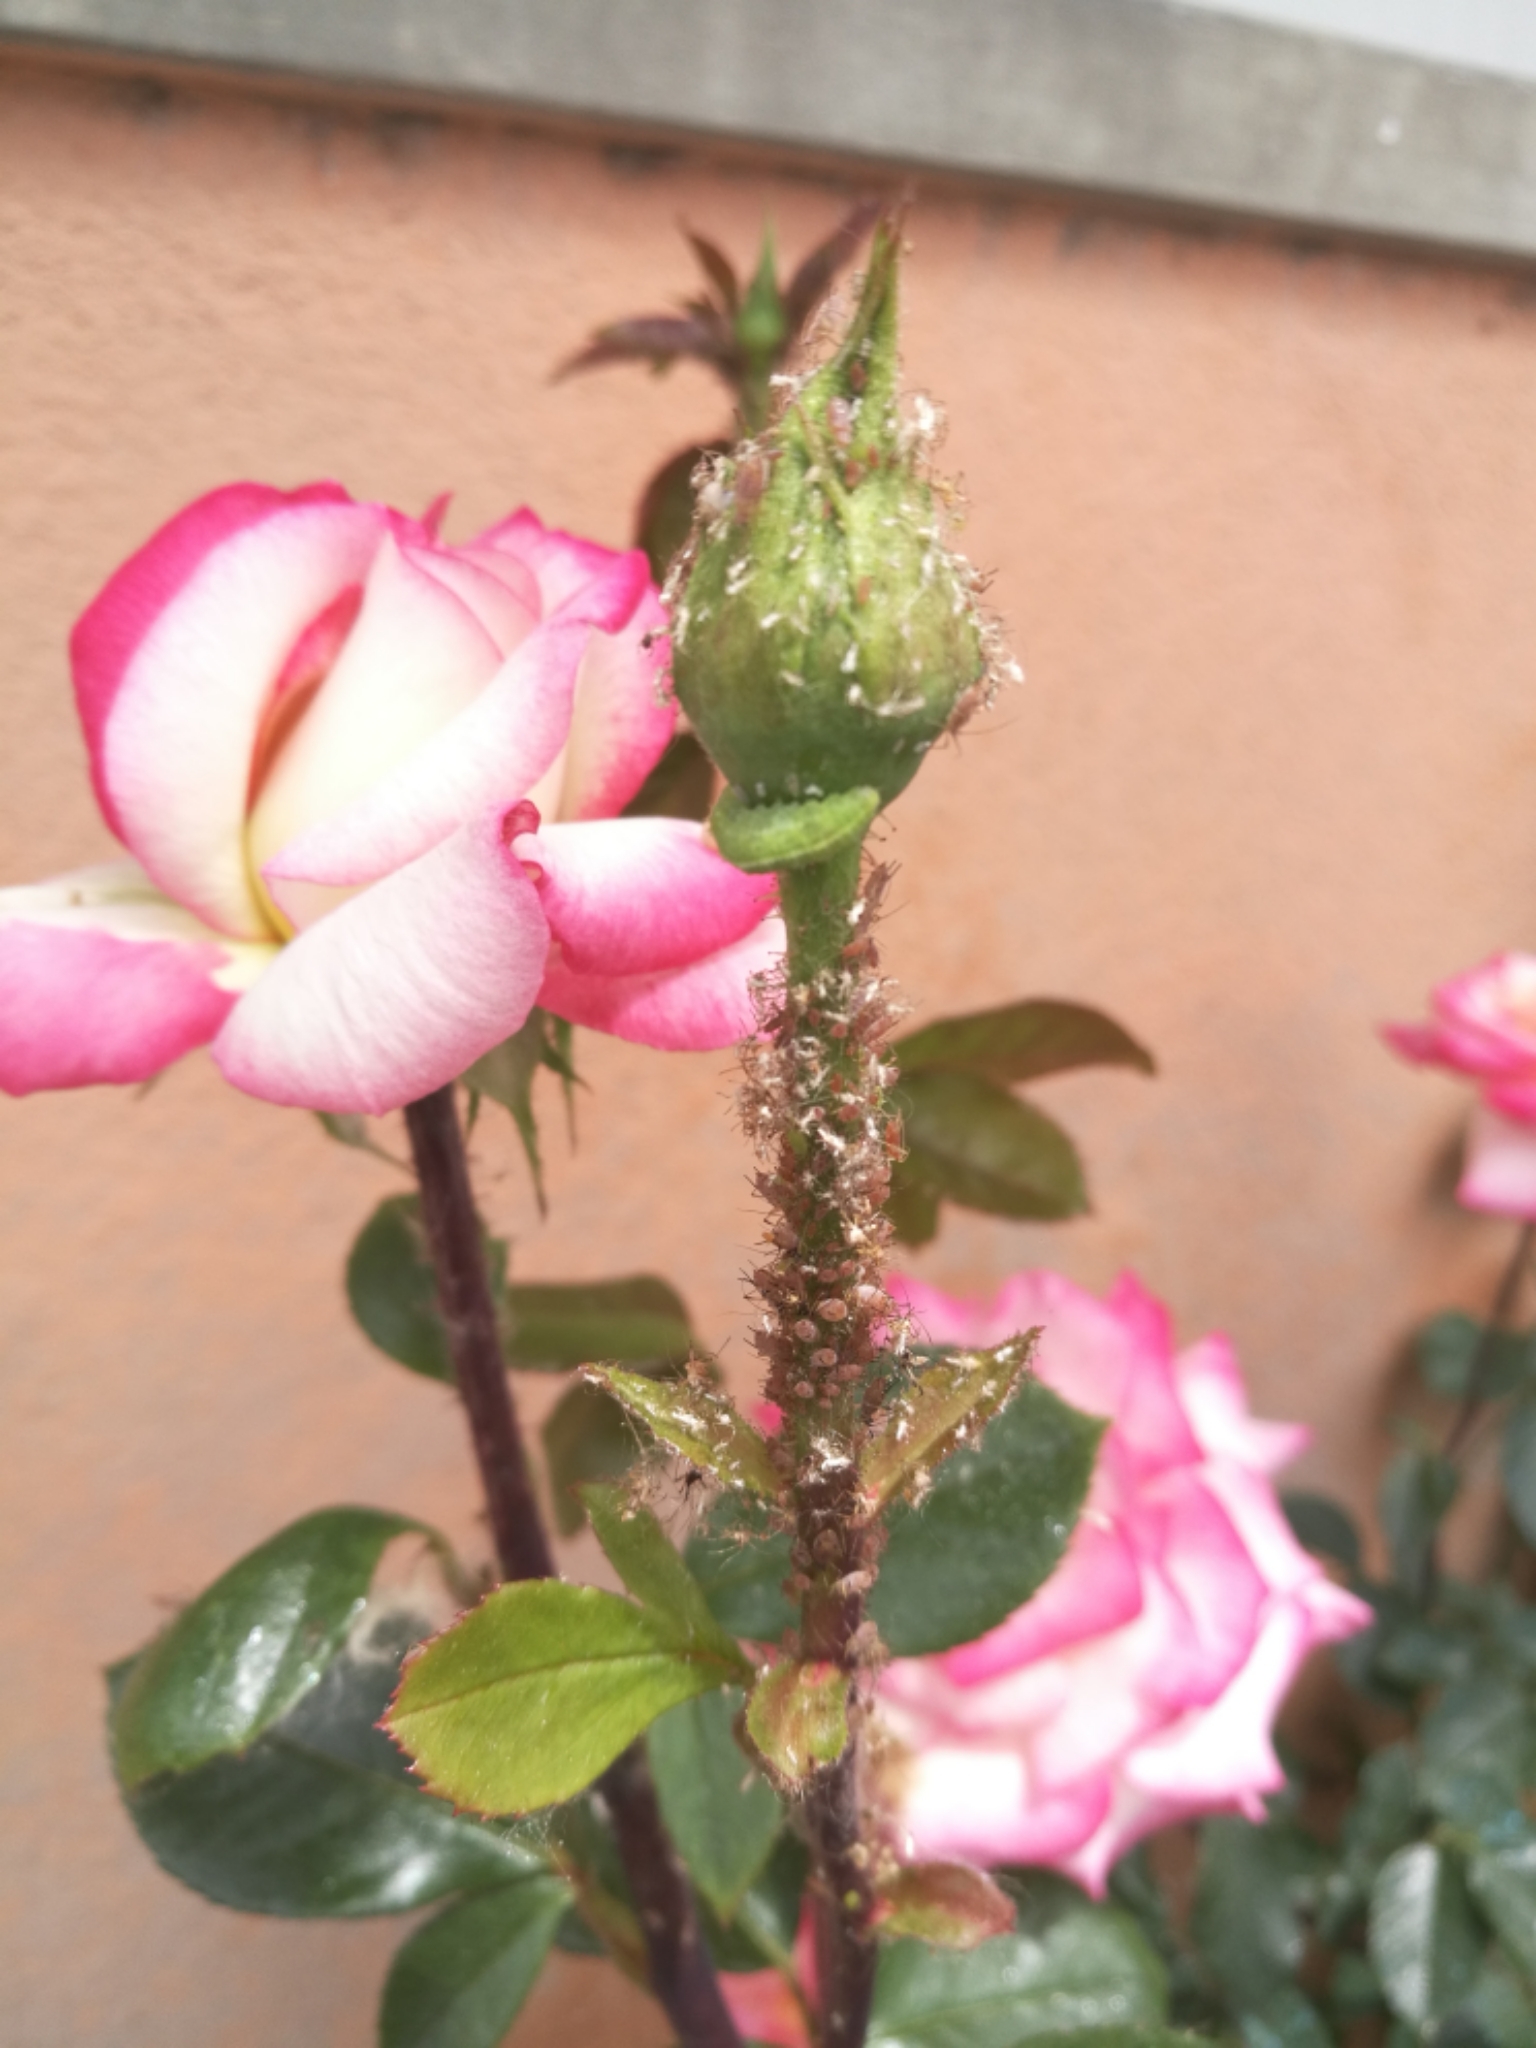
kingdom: Animalia
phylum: Arthropoda
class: Insecta
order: Hemiptera
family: Aphididae
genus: Macrosiphum
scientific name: Macrosiphum rosae
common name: Rose aphid
